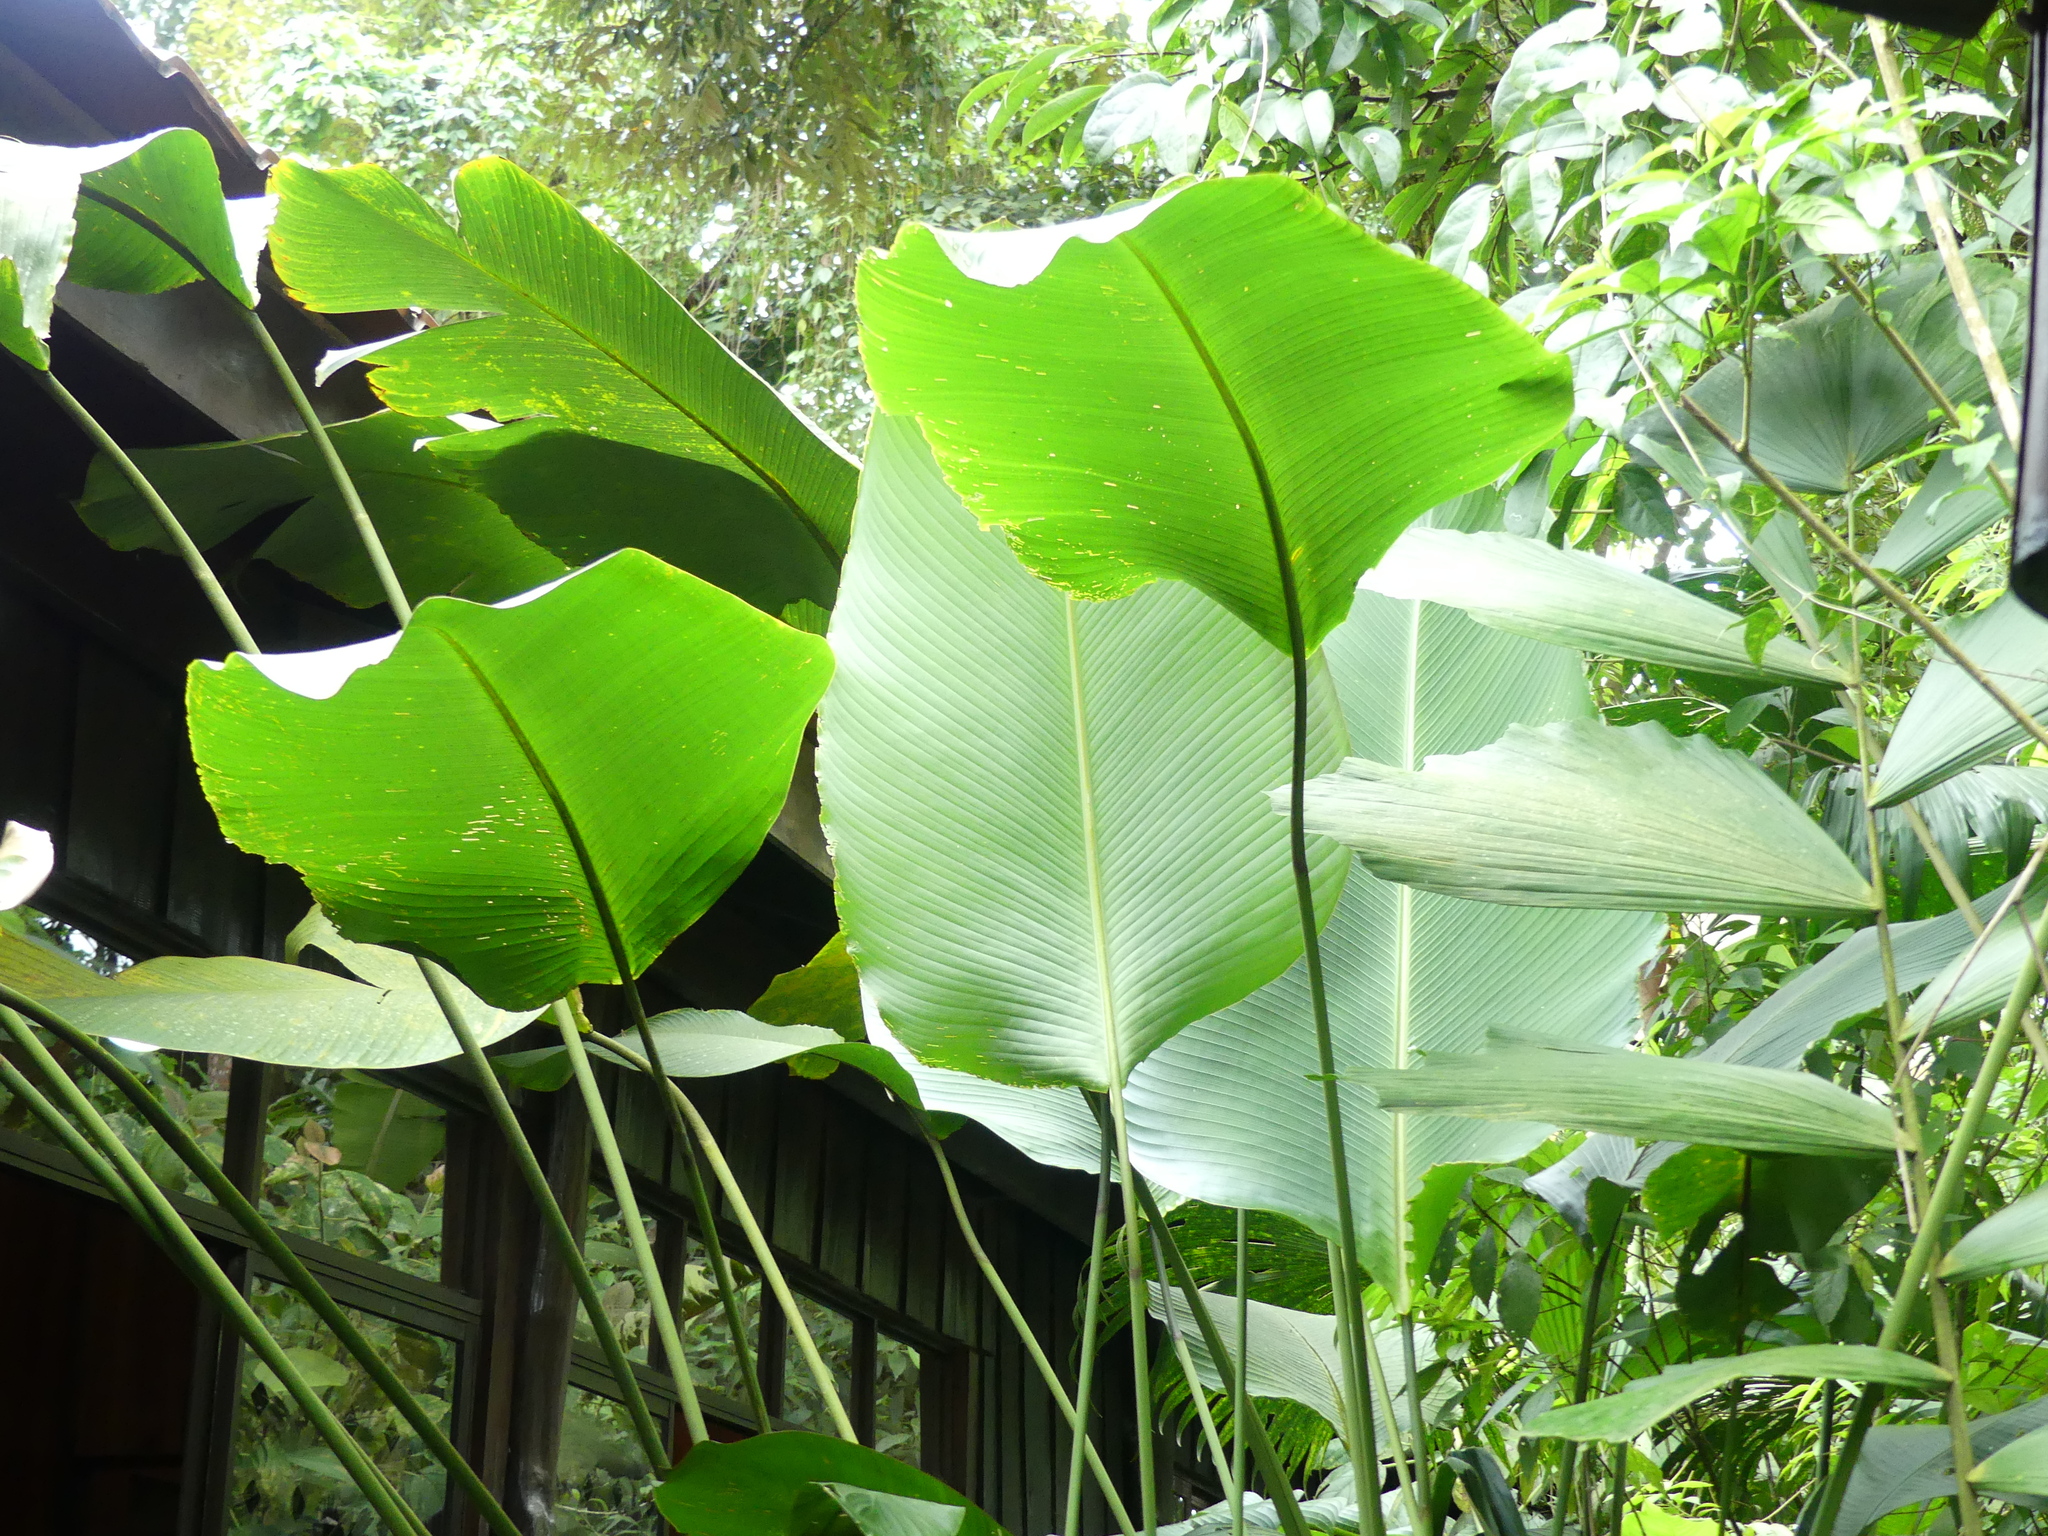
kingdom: Plantae
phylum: Tracheophyta
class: Liliopsida
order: Zingiberales
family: Marantaceae
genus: Calathea
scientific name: Calathea crotalifera
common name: Rattlesnake plant
